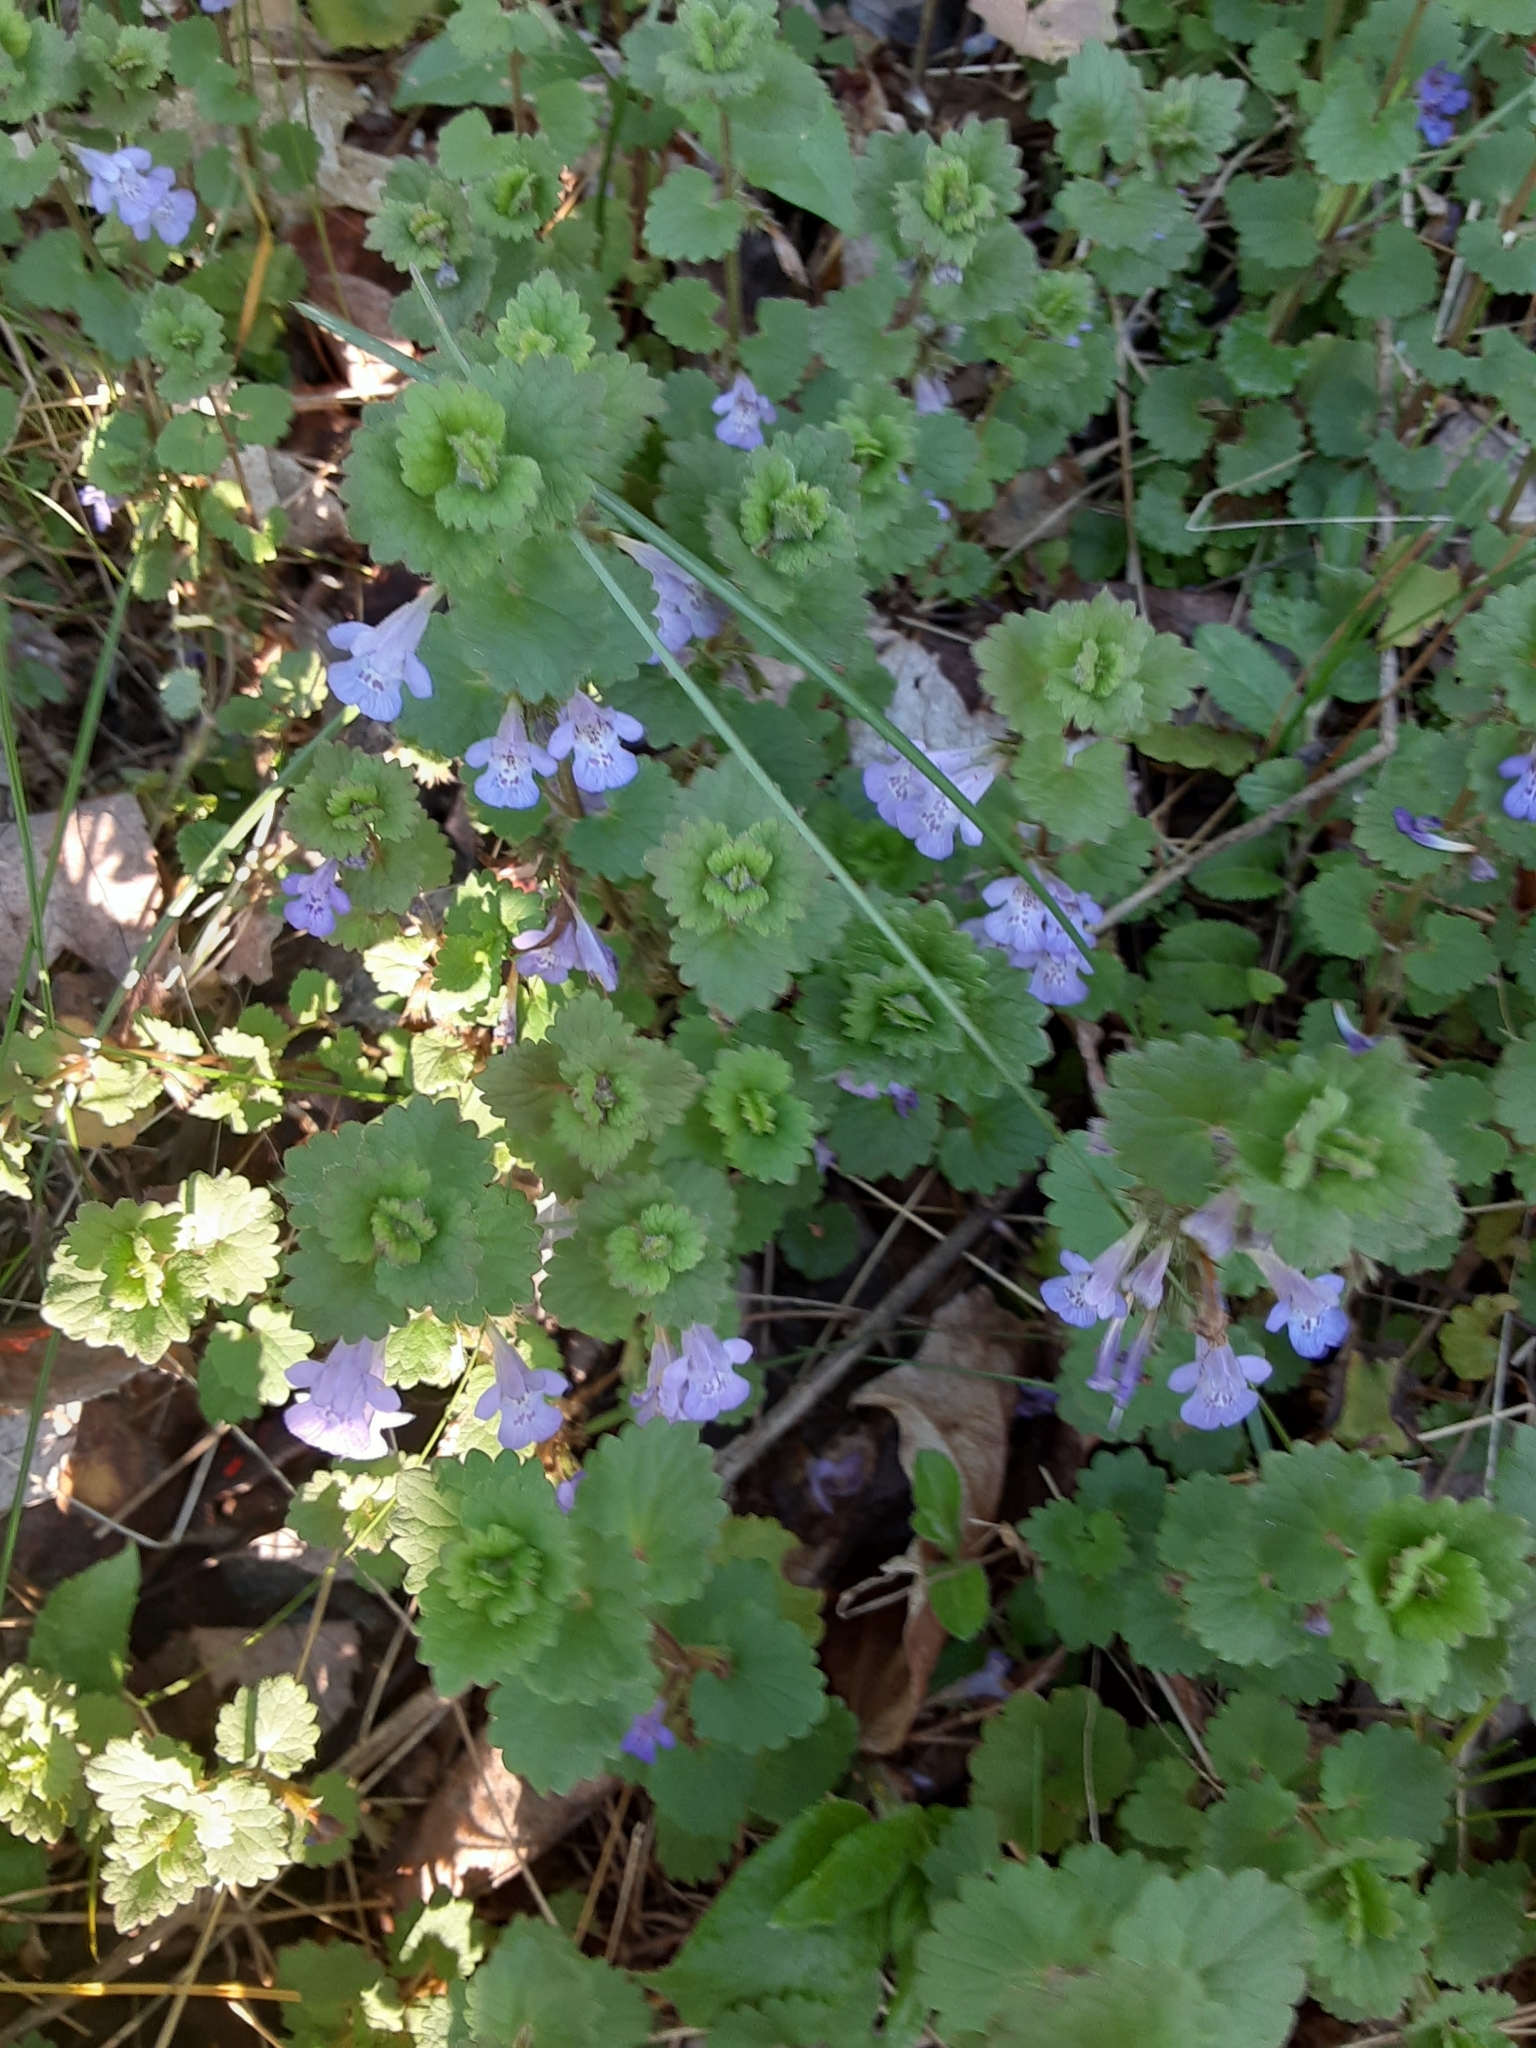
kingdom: Plantae
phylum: Tracheophyta
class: Magnoliopsida
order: Lamiales
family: Lamiaceae
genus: Glechoma
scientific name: Glechoma hederacea
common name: Ground ivy
